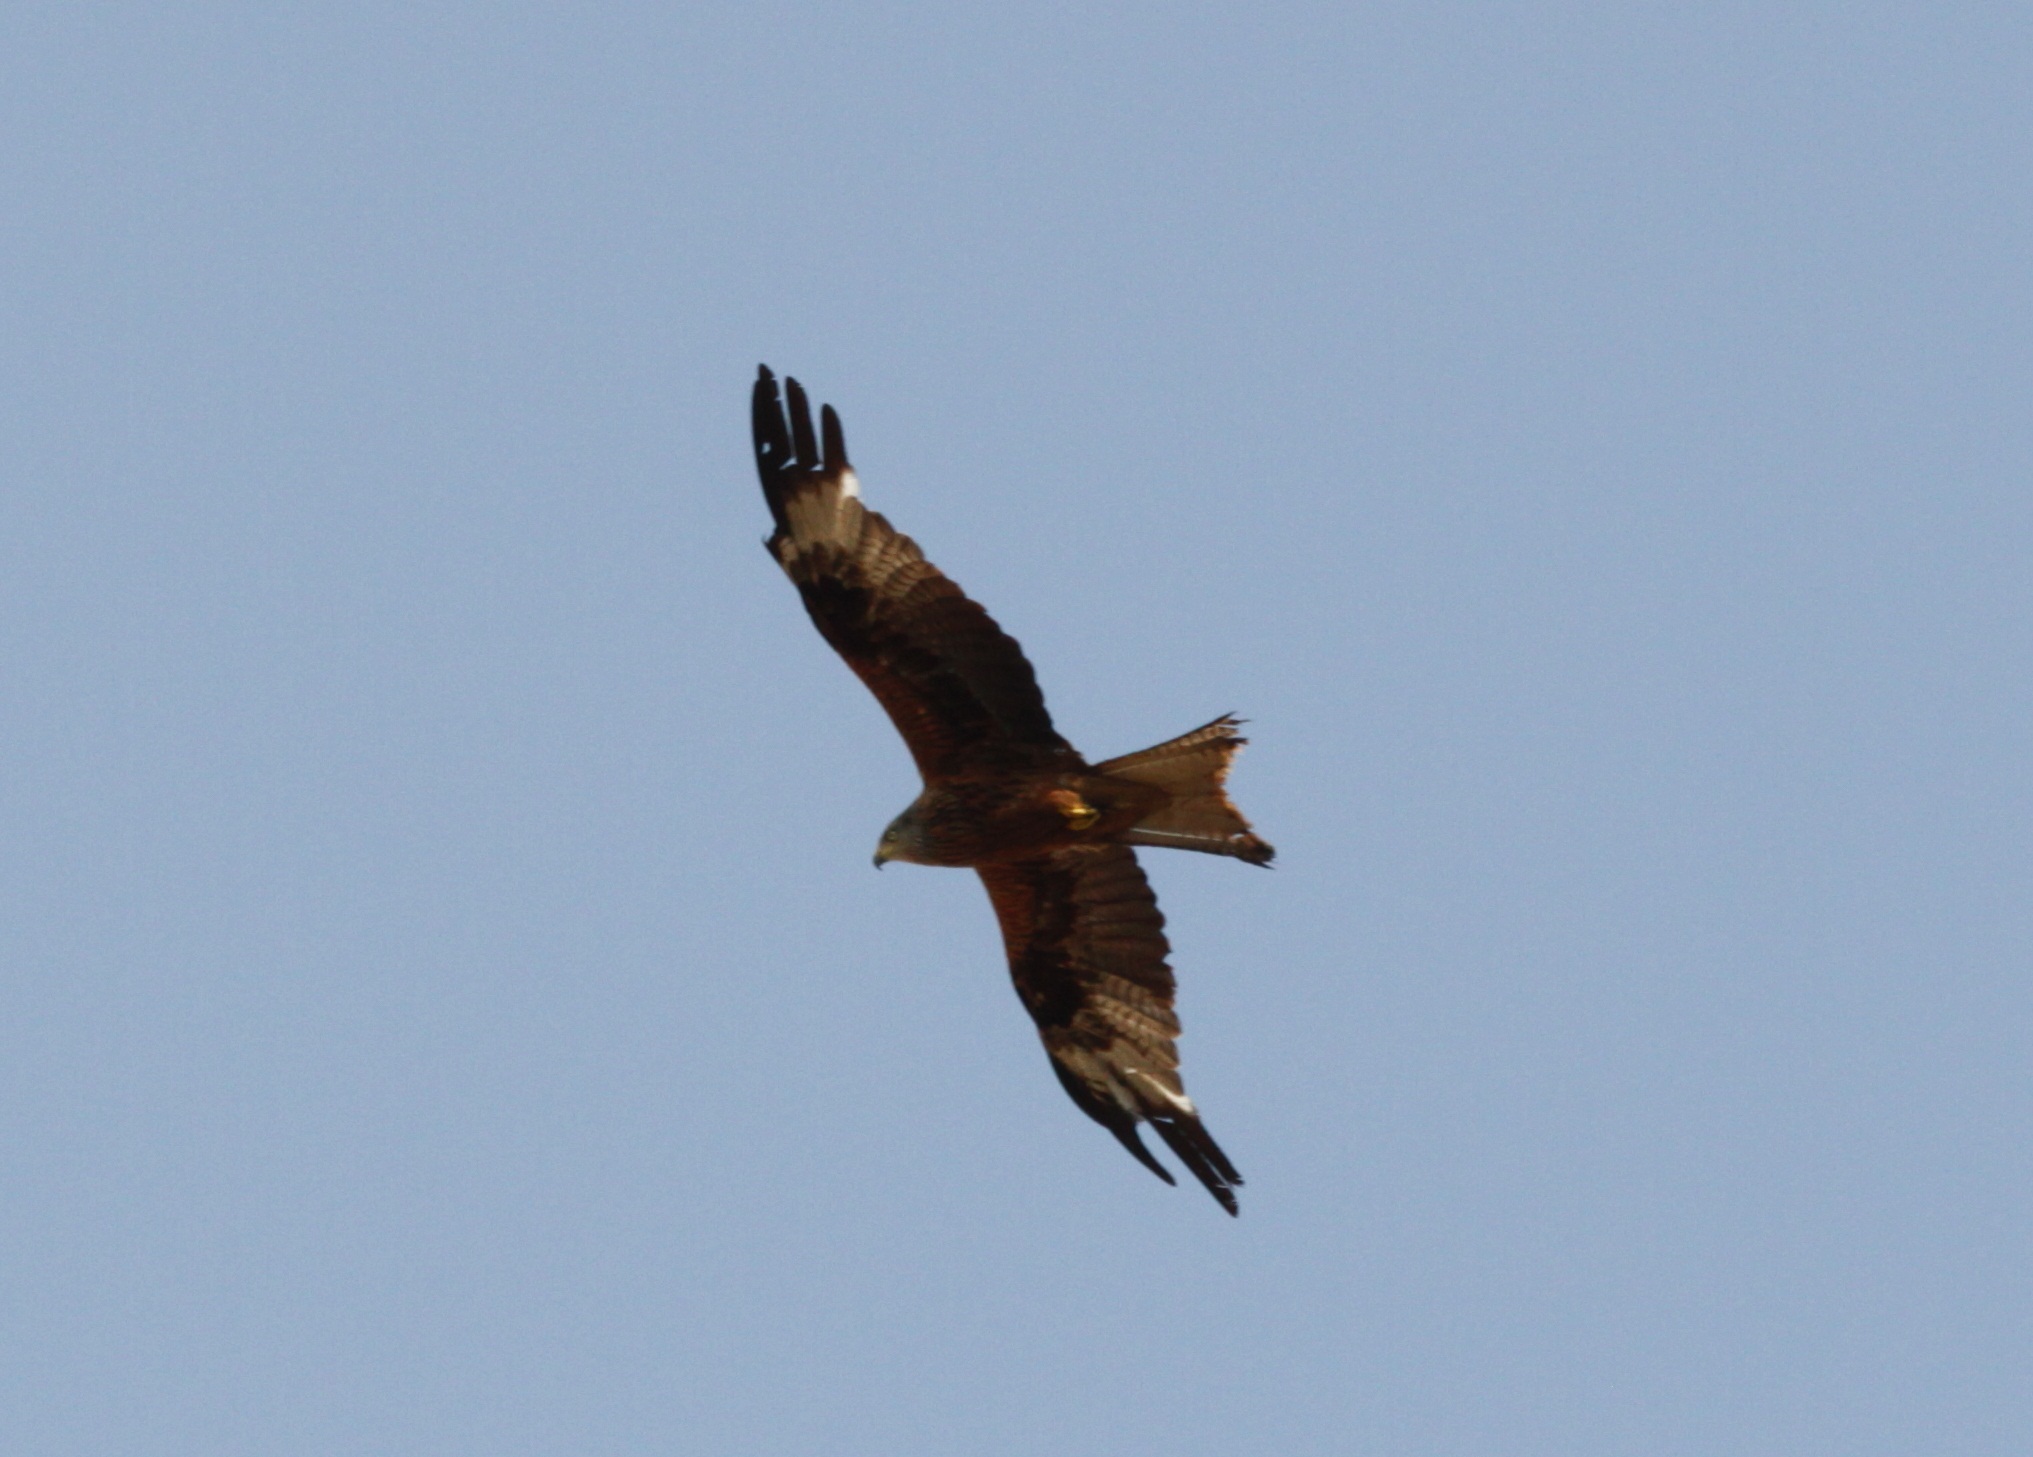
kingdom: Animalia
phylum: Chordata
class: Aves
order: Accipitriformes
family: Accipitridae
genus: Milvus
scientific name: Milvus milvus
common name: Red kite
